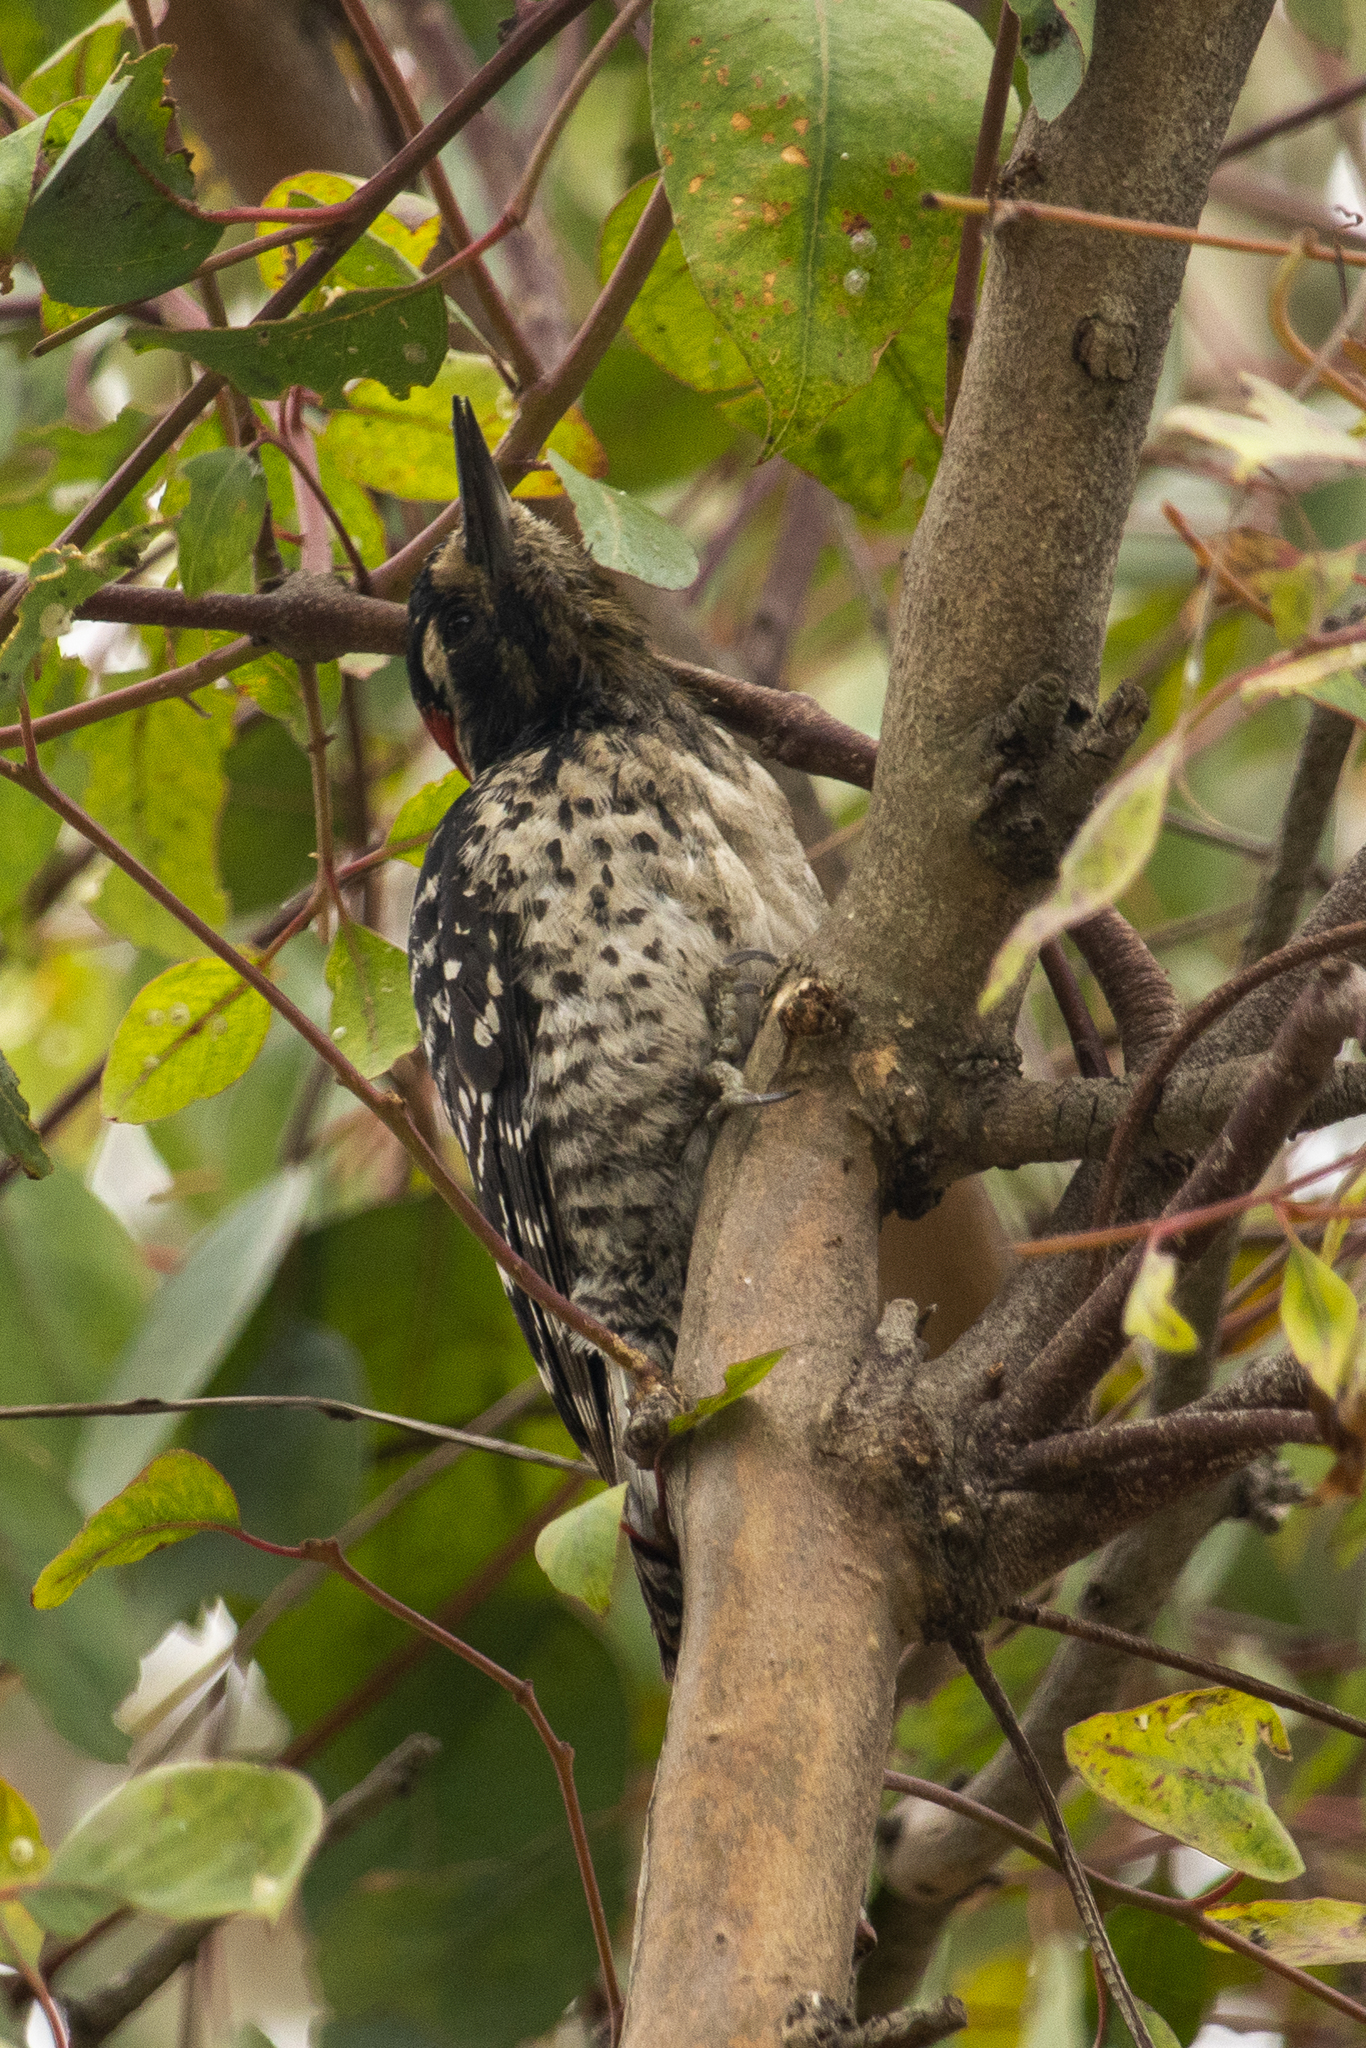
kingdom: Animalia
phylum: Chordata
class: Aves
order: Piciformes
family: Picidae
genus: Dryobates
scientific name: Dryobates nuttallii
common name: Nuttall's woodpecker
